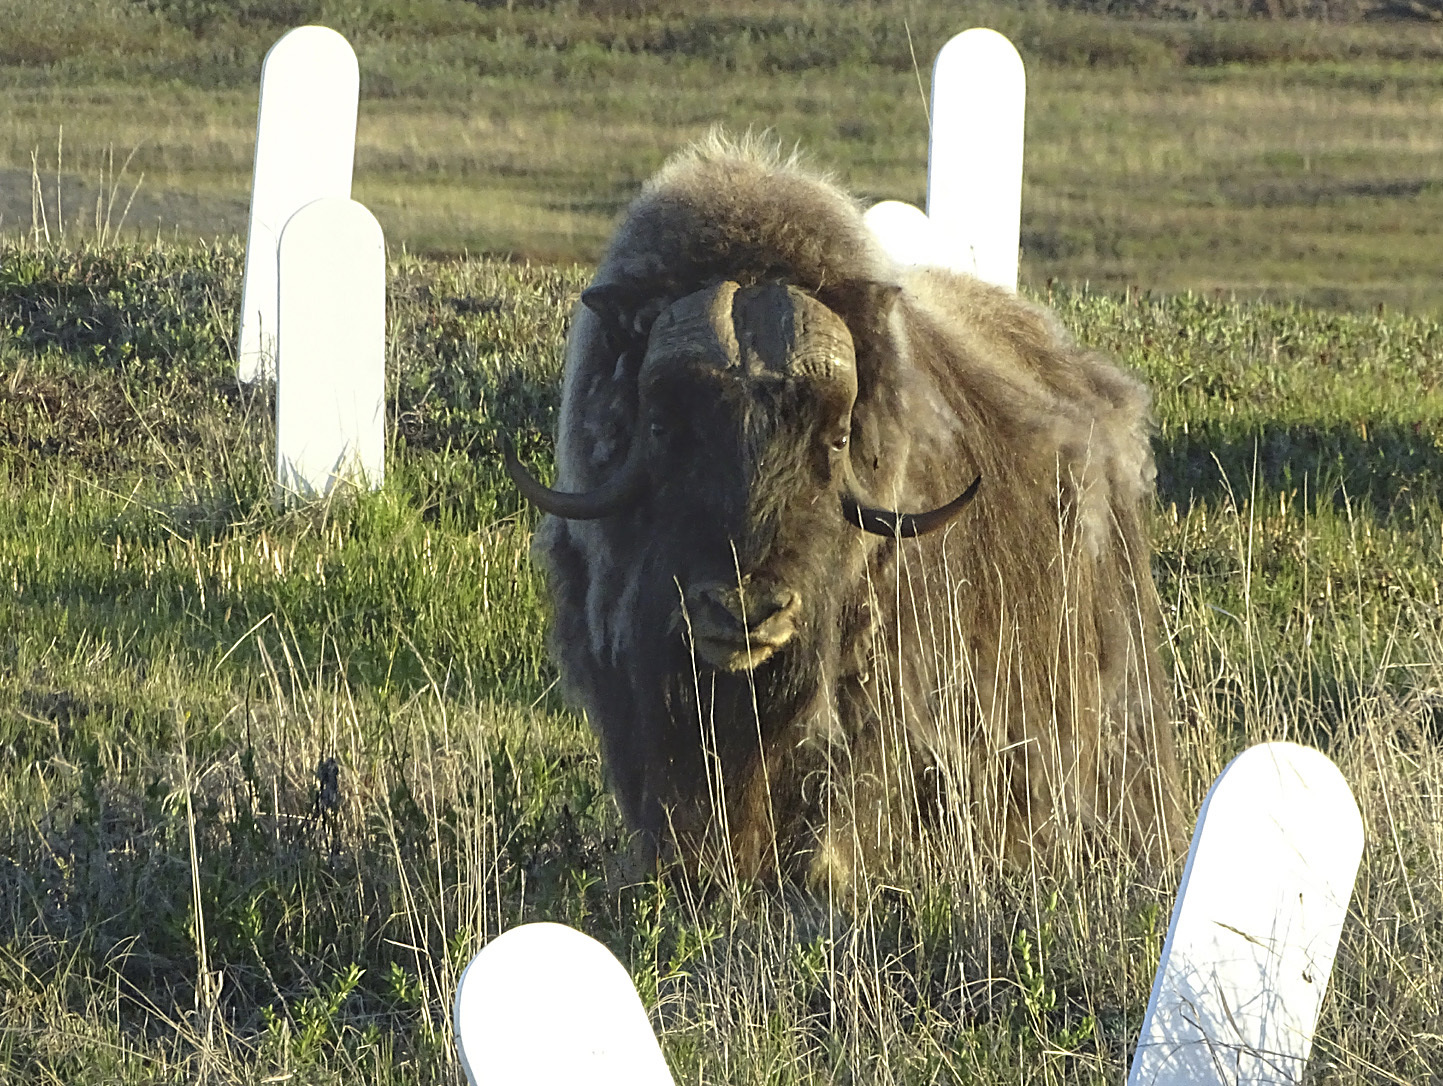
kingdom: Animalia
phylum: Chordata
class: Mammalia
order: Artiodactyla
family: Bovidae
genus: Ovibos
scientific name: Ovibos moschatus
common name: Muskox
